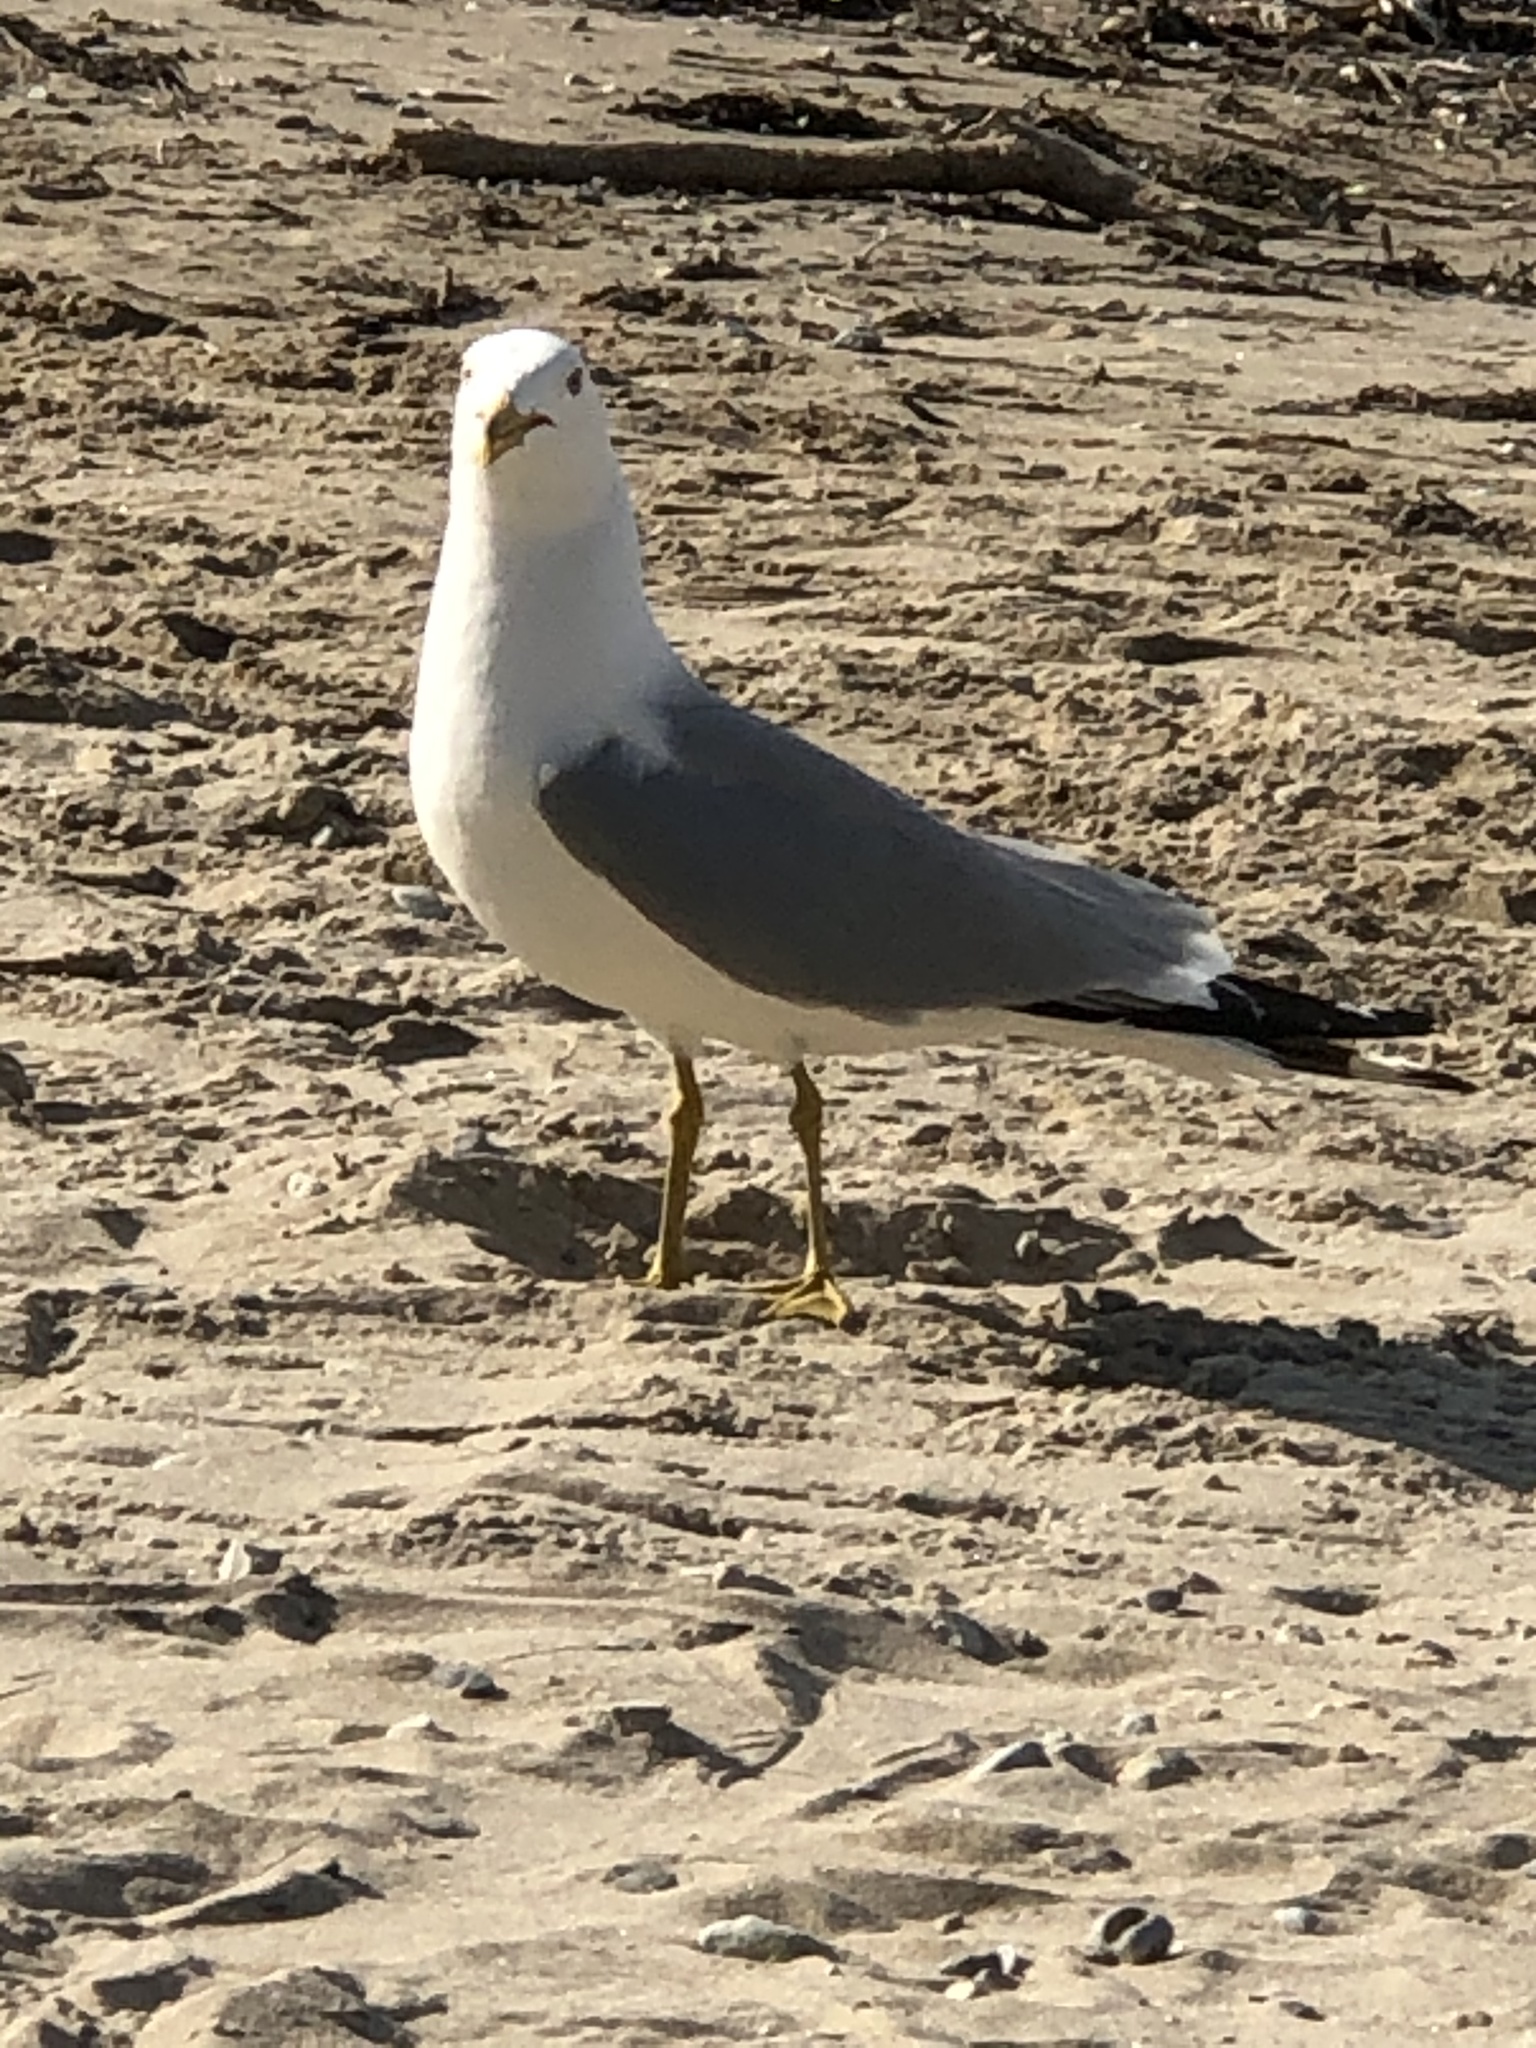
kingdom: Animalia
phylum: Chordata
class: Aves
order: Charadriiformes
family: Laridae
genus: Larus
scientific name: Larus delawarensis
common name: Ring-billed gull
